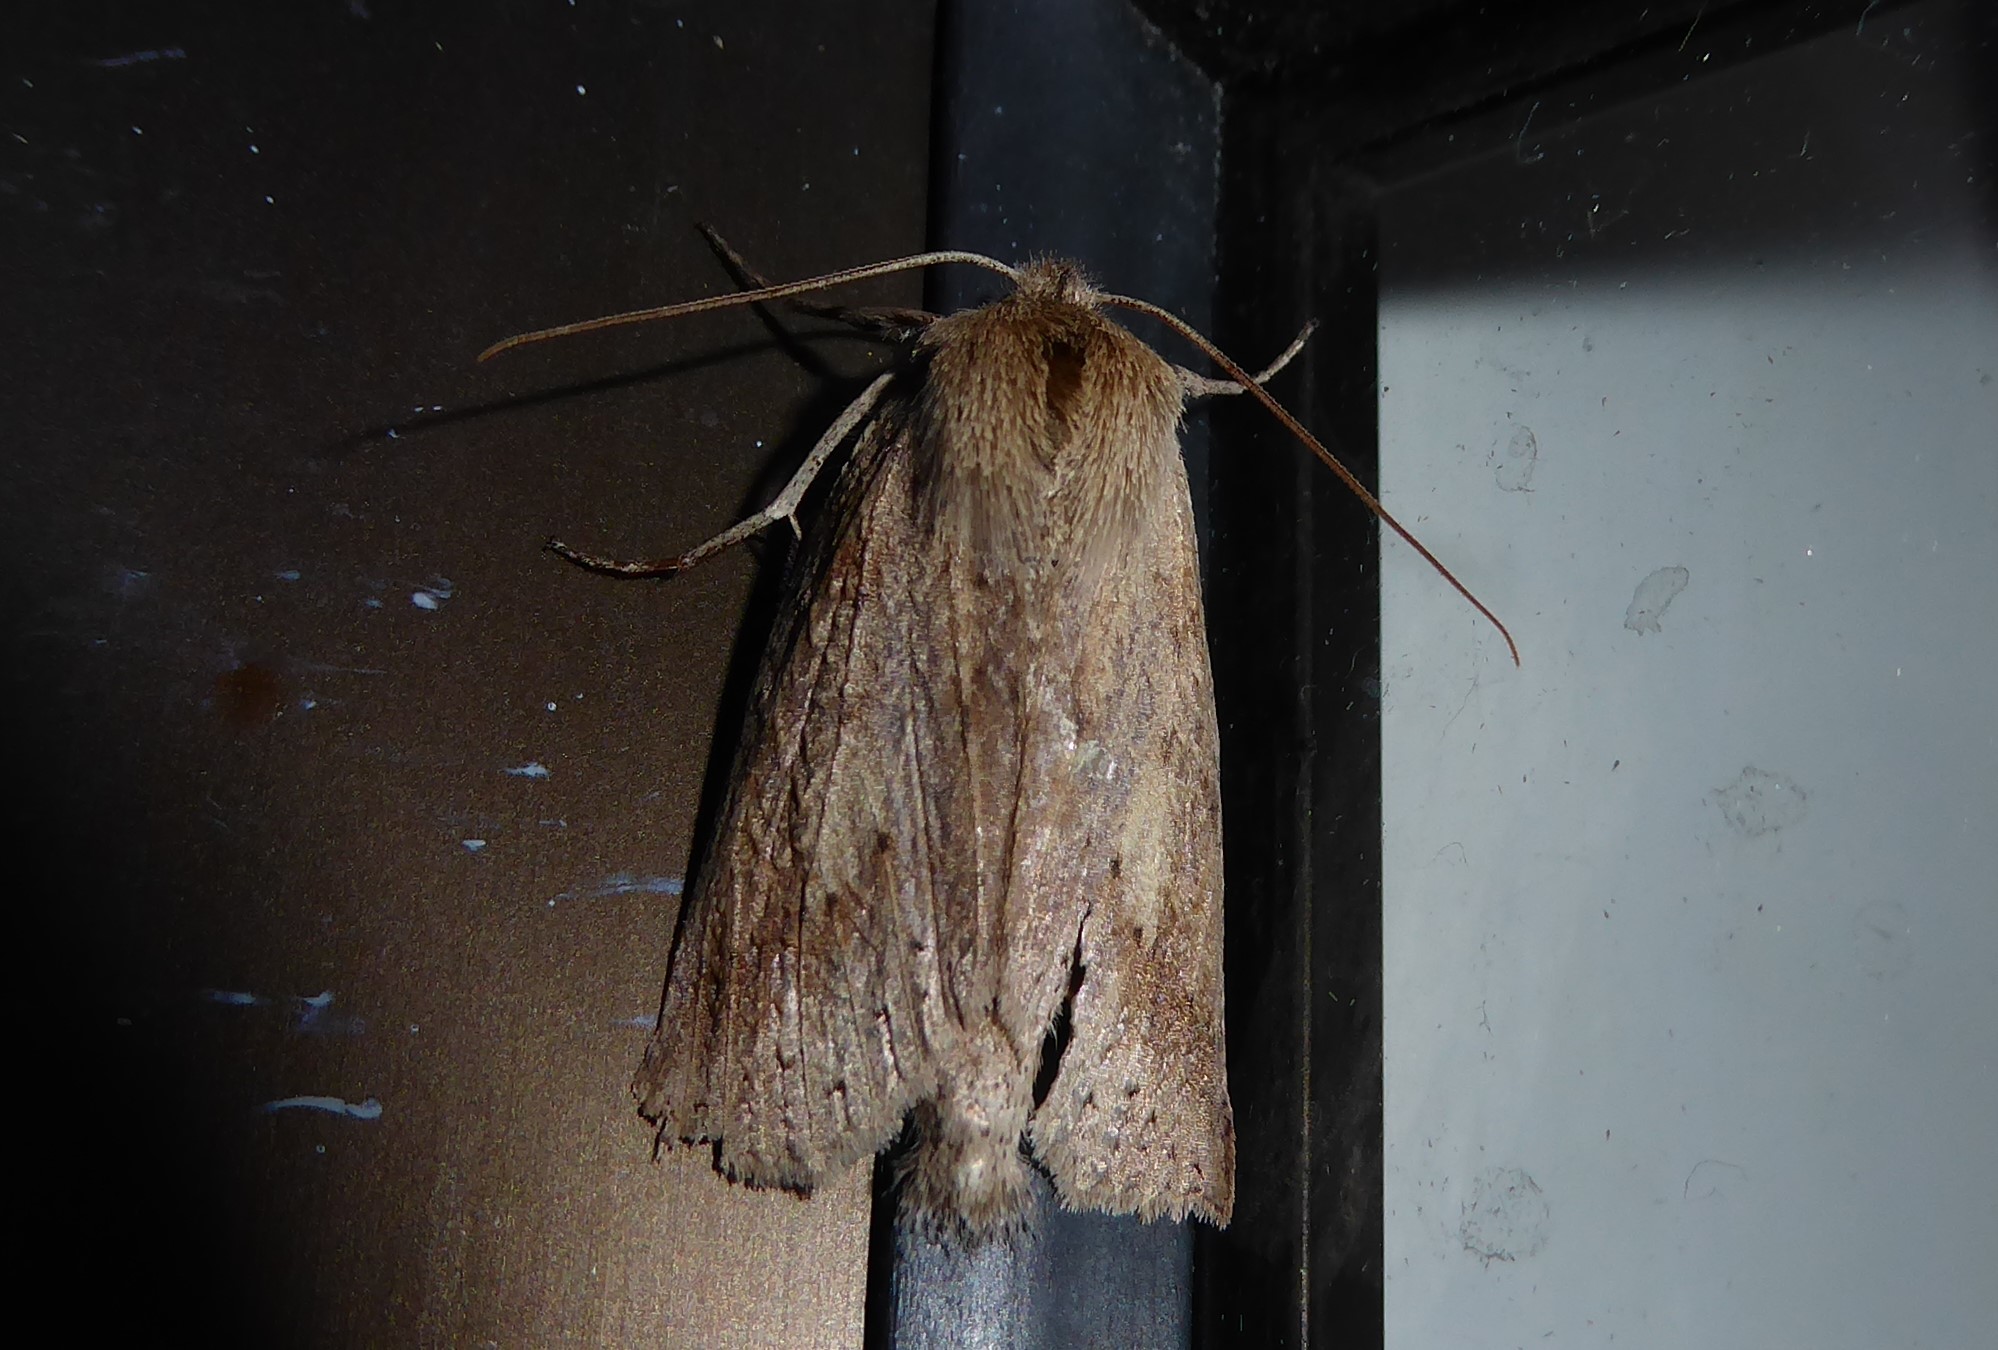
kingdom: Animalia
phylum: Arthropoda
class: Insecta
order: Lepidoptera
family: Geometridae
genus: Declana
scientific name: Declana leptomera
